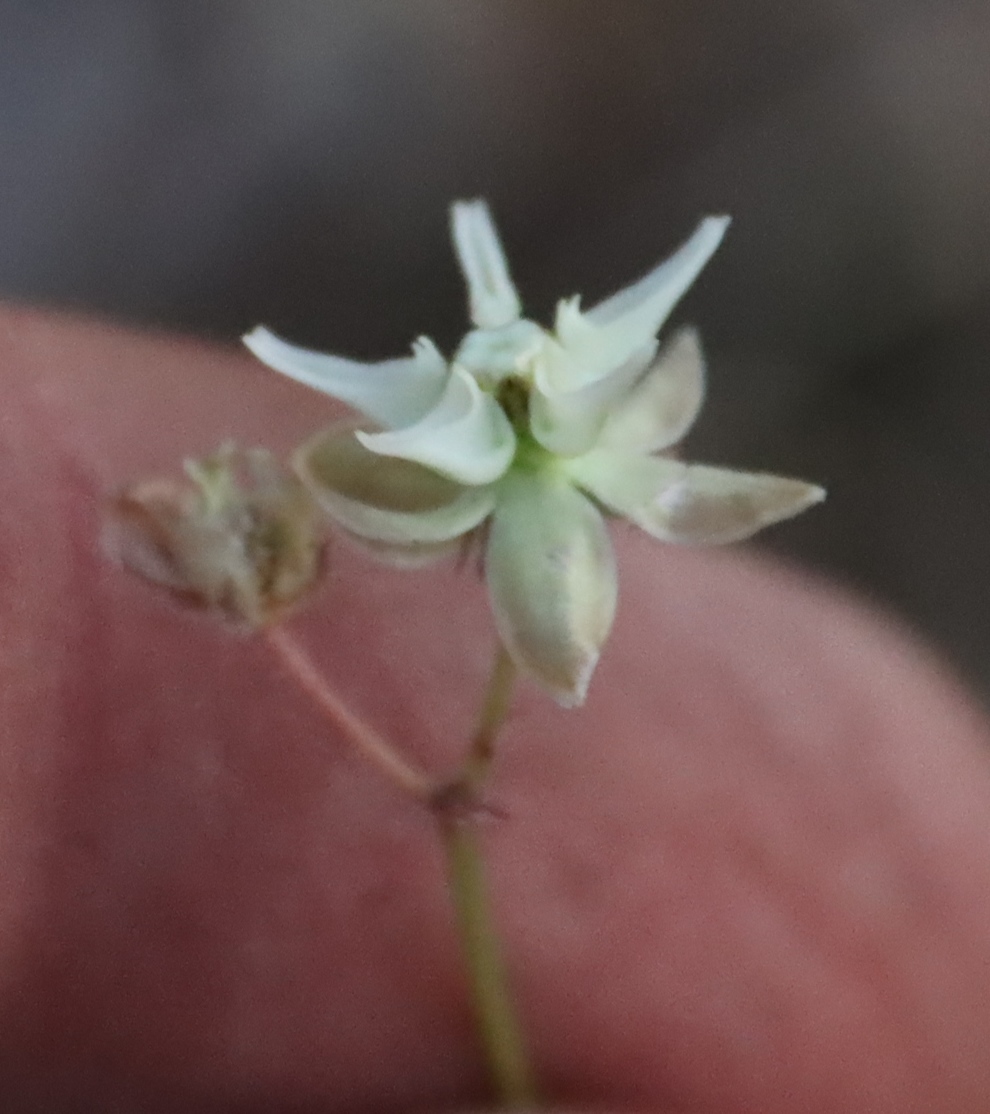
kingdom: Plantae
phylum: Tracheophyta
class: Magnoliopsida
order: Gentianales
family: Apocynaceae
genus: Asclepias
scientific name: Asclepias aurea
